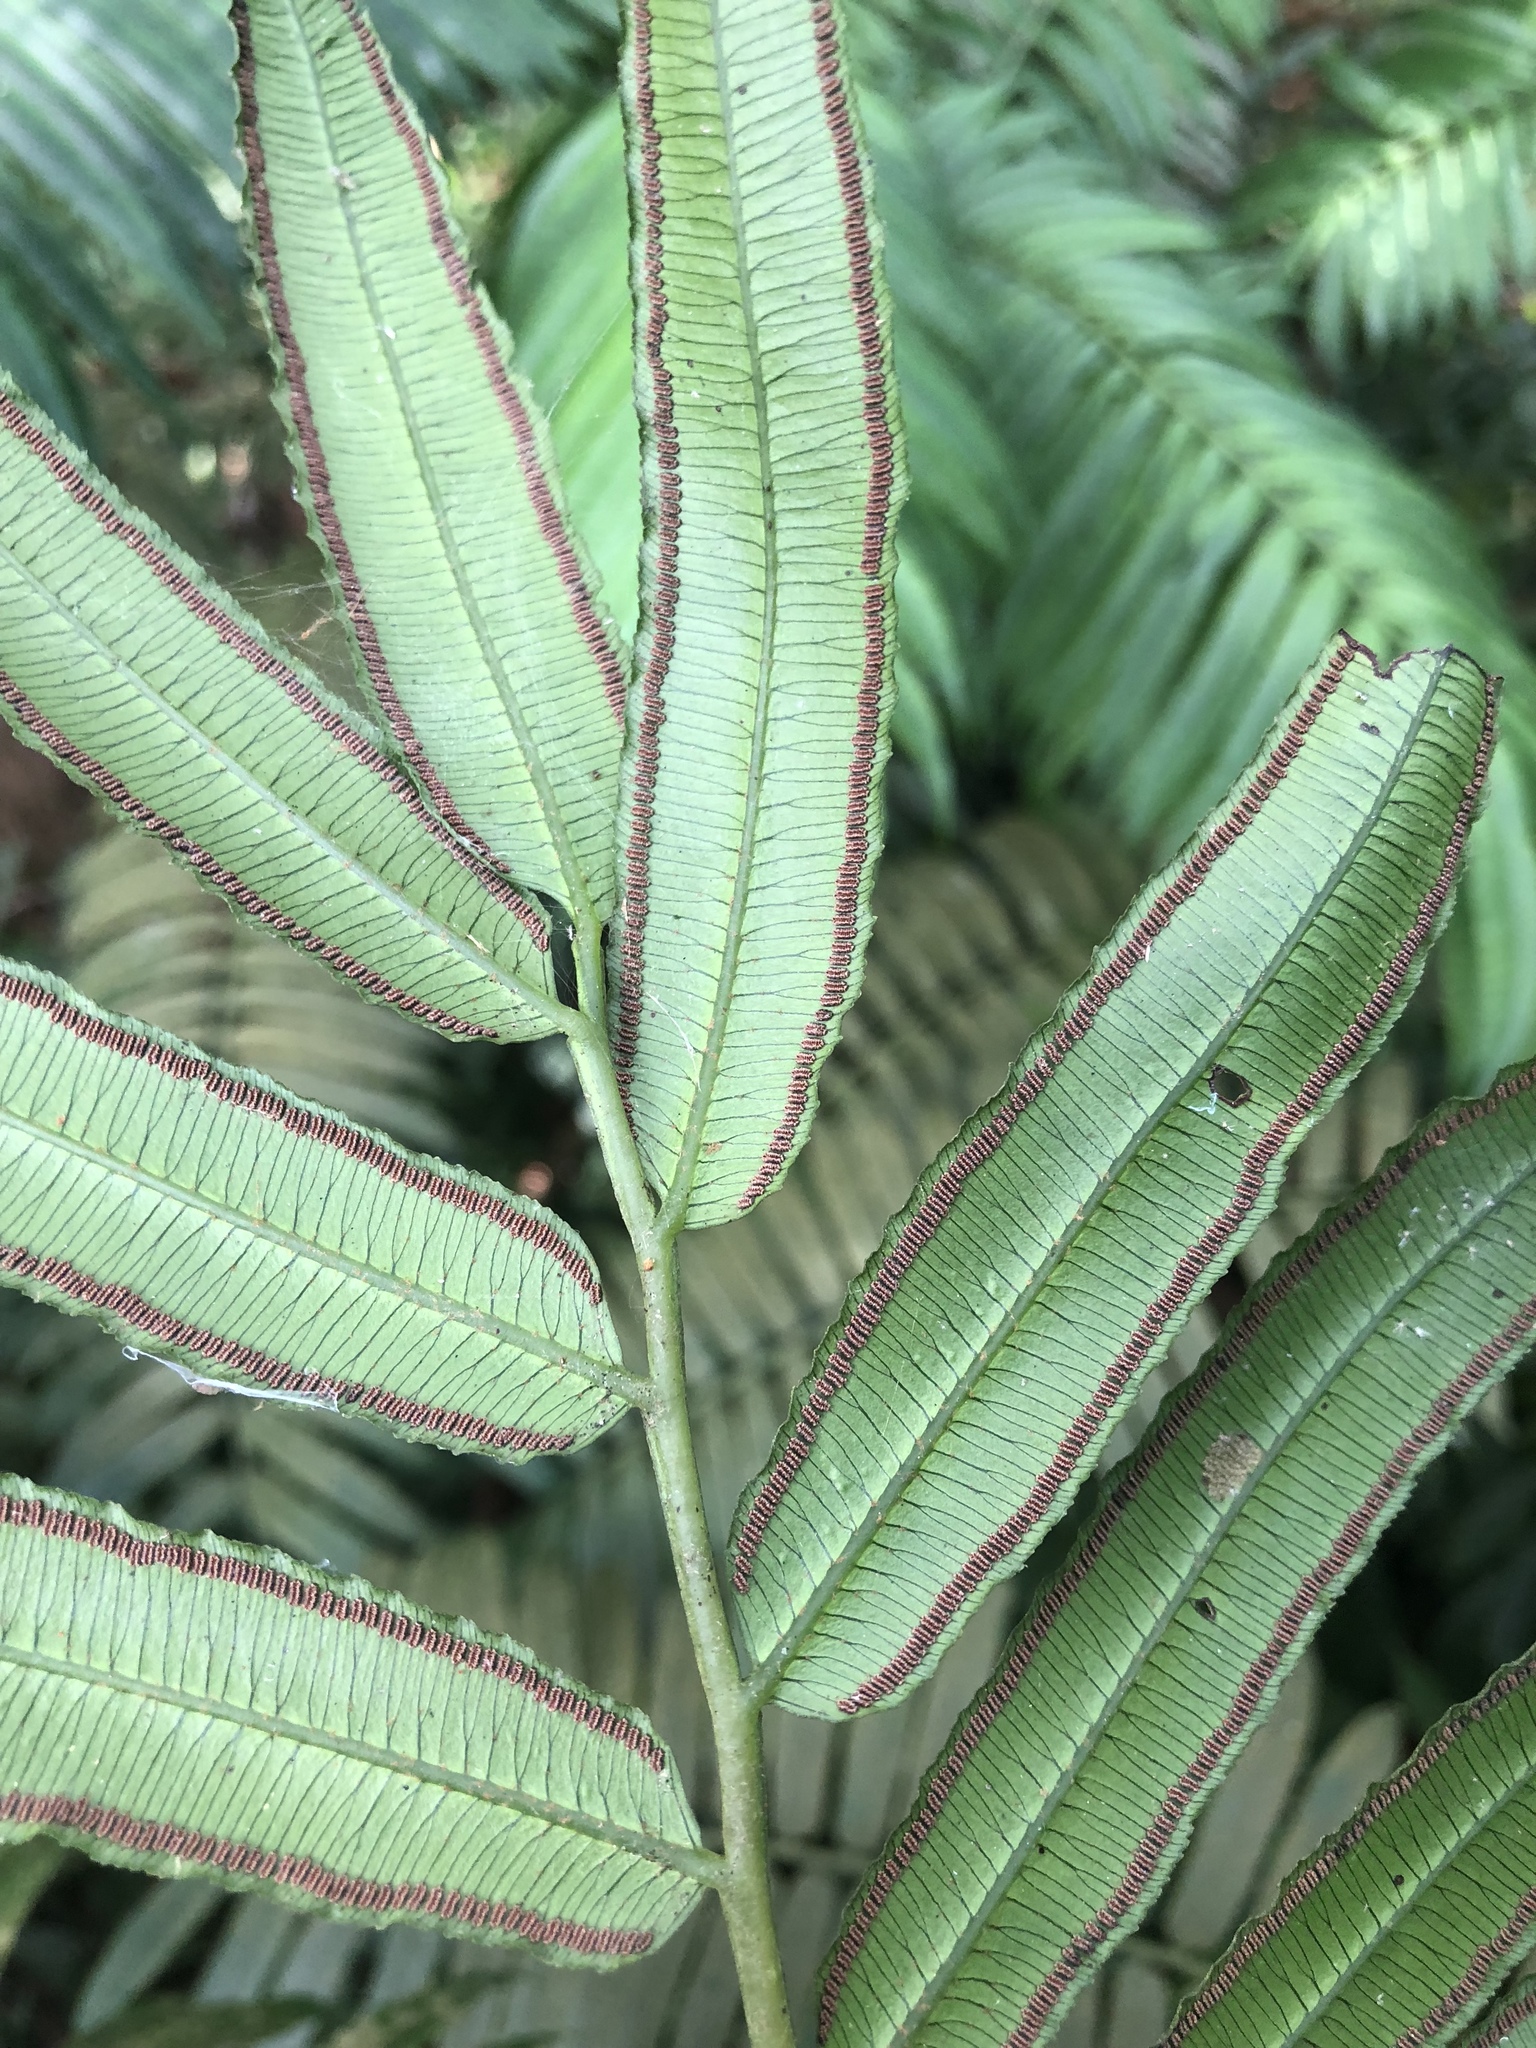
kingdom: Plantae
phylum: Tracheophyta
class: Polypodiopsida
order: Marattiales
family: Marattiaceae
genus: Angiopteris
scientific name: Angiopteris lygodiifolia
